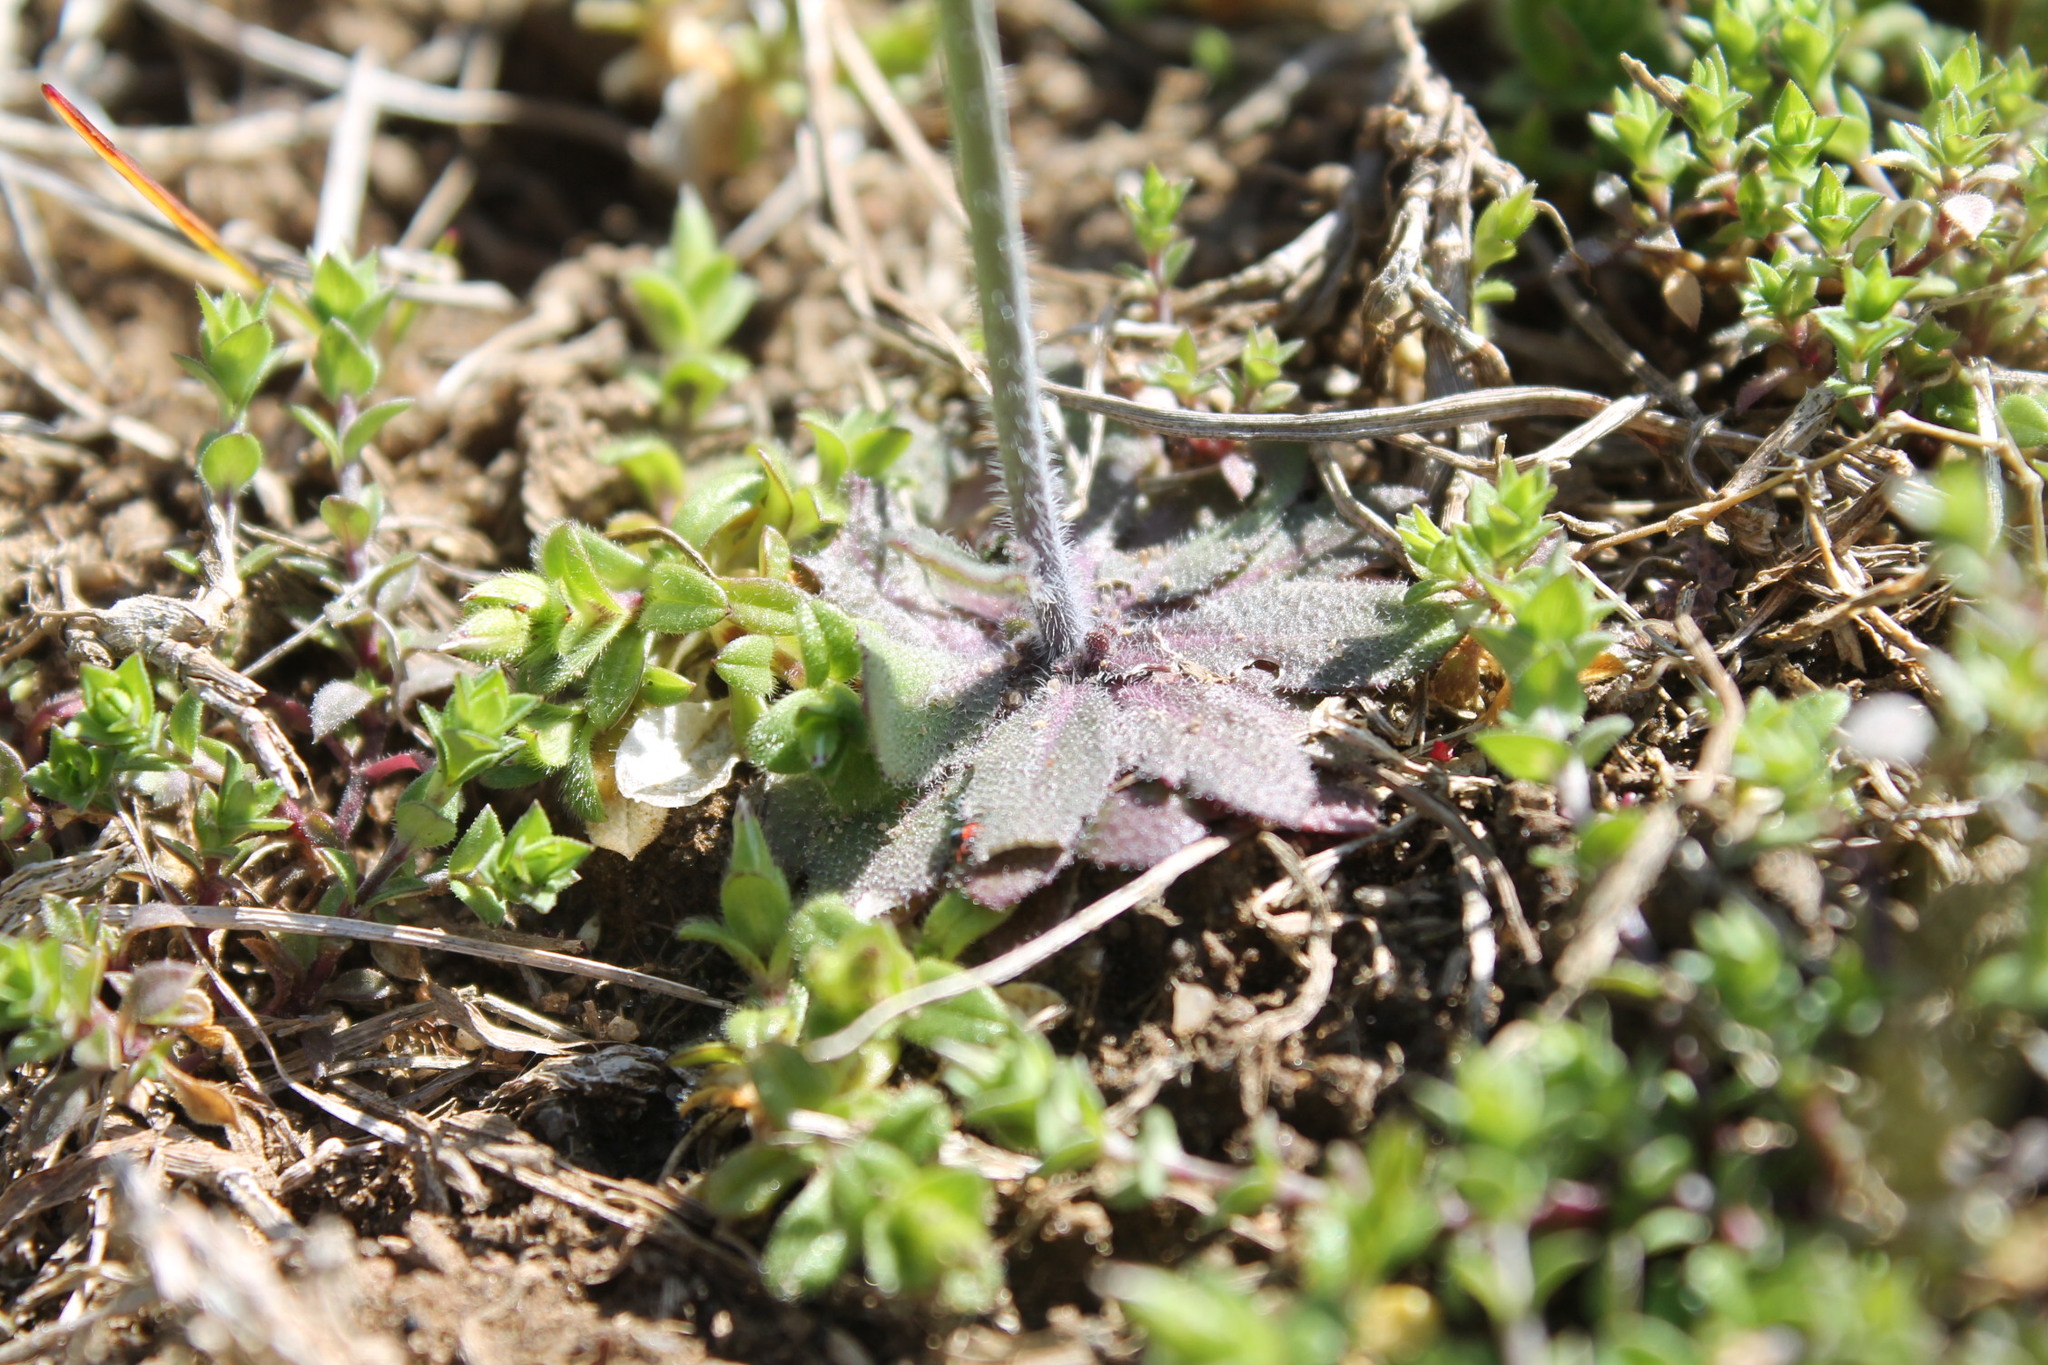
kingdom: Plantae
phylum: Tracheophyta
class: Magnoliopsida
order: Brassicales
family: Brassicaceae
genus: Arabidopsis
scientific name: Arabidopsis thaliana
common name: Thale cress
